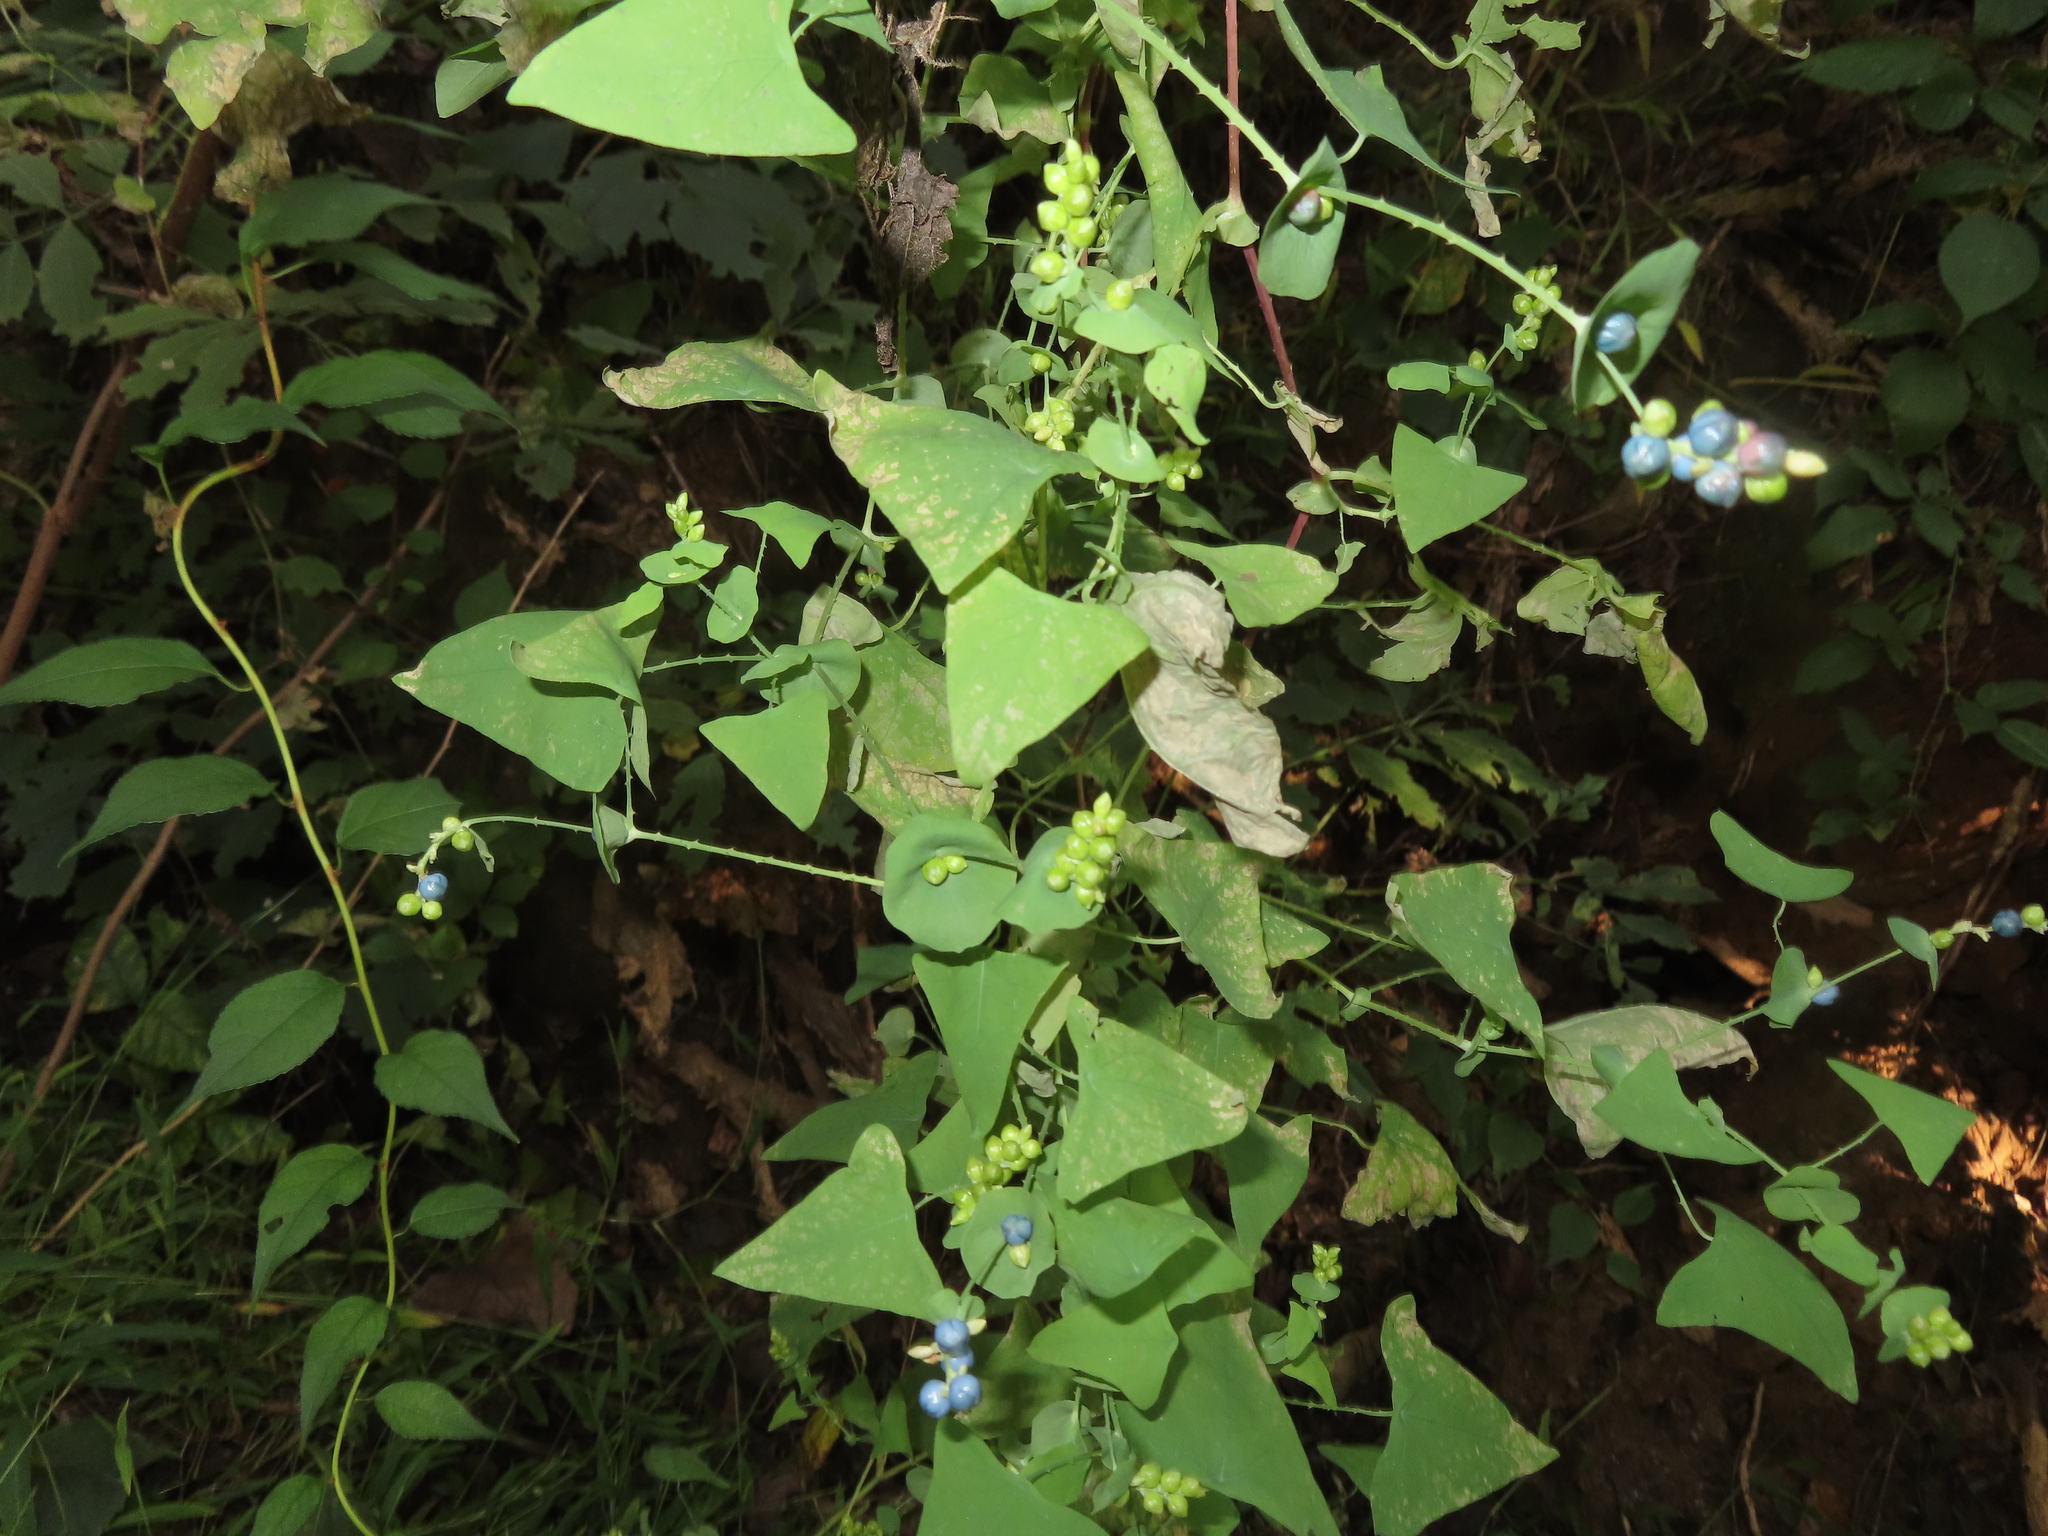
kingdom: Plantae
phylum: Tracheophyta
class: Magnoliopsida
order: Caryophyllales
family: Polygonaceae
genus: Persicaria
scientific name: Persicaria perfoliata
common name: Asiatic tearthumb
